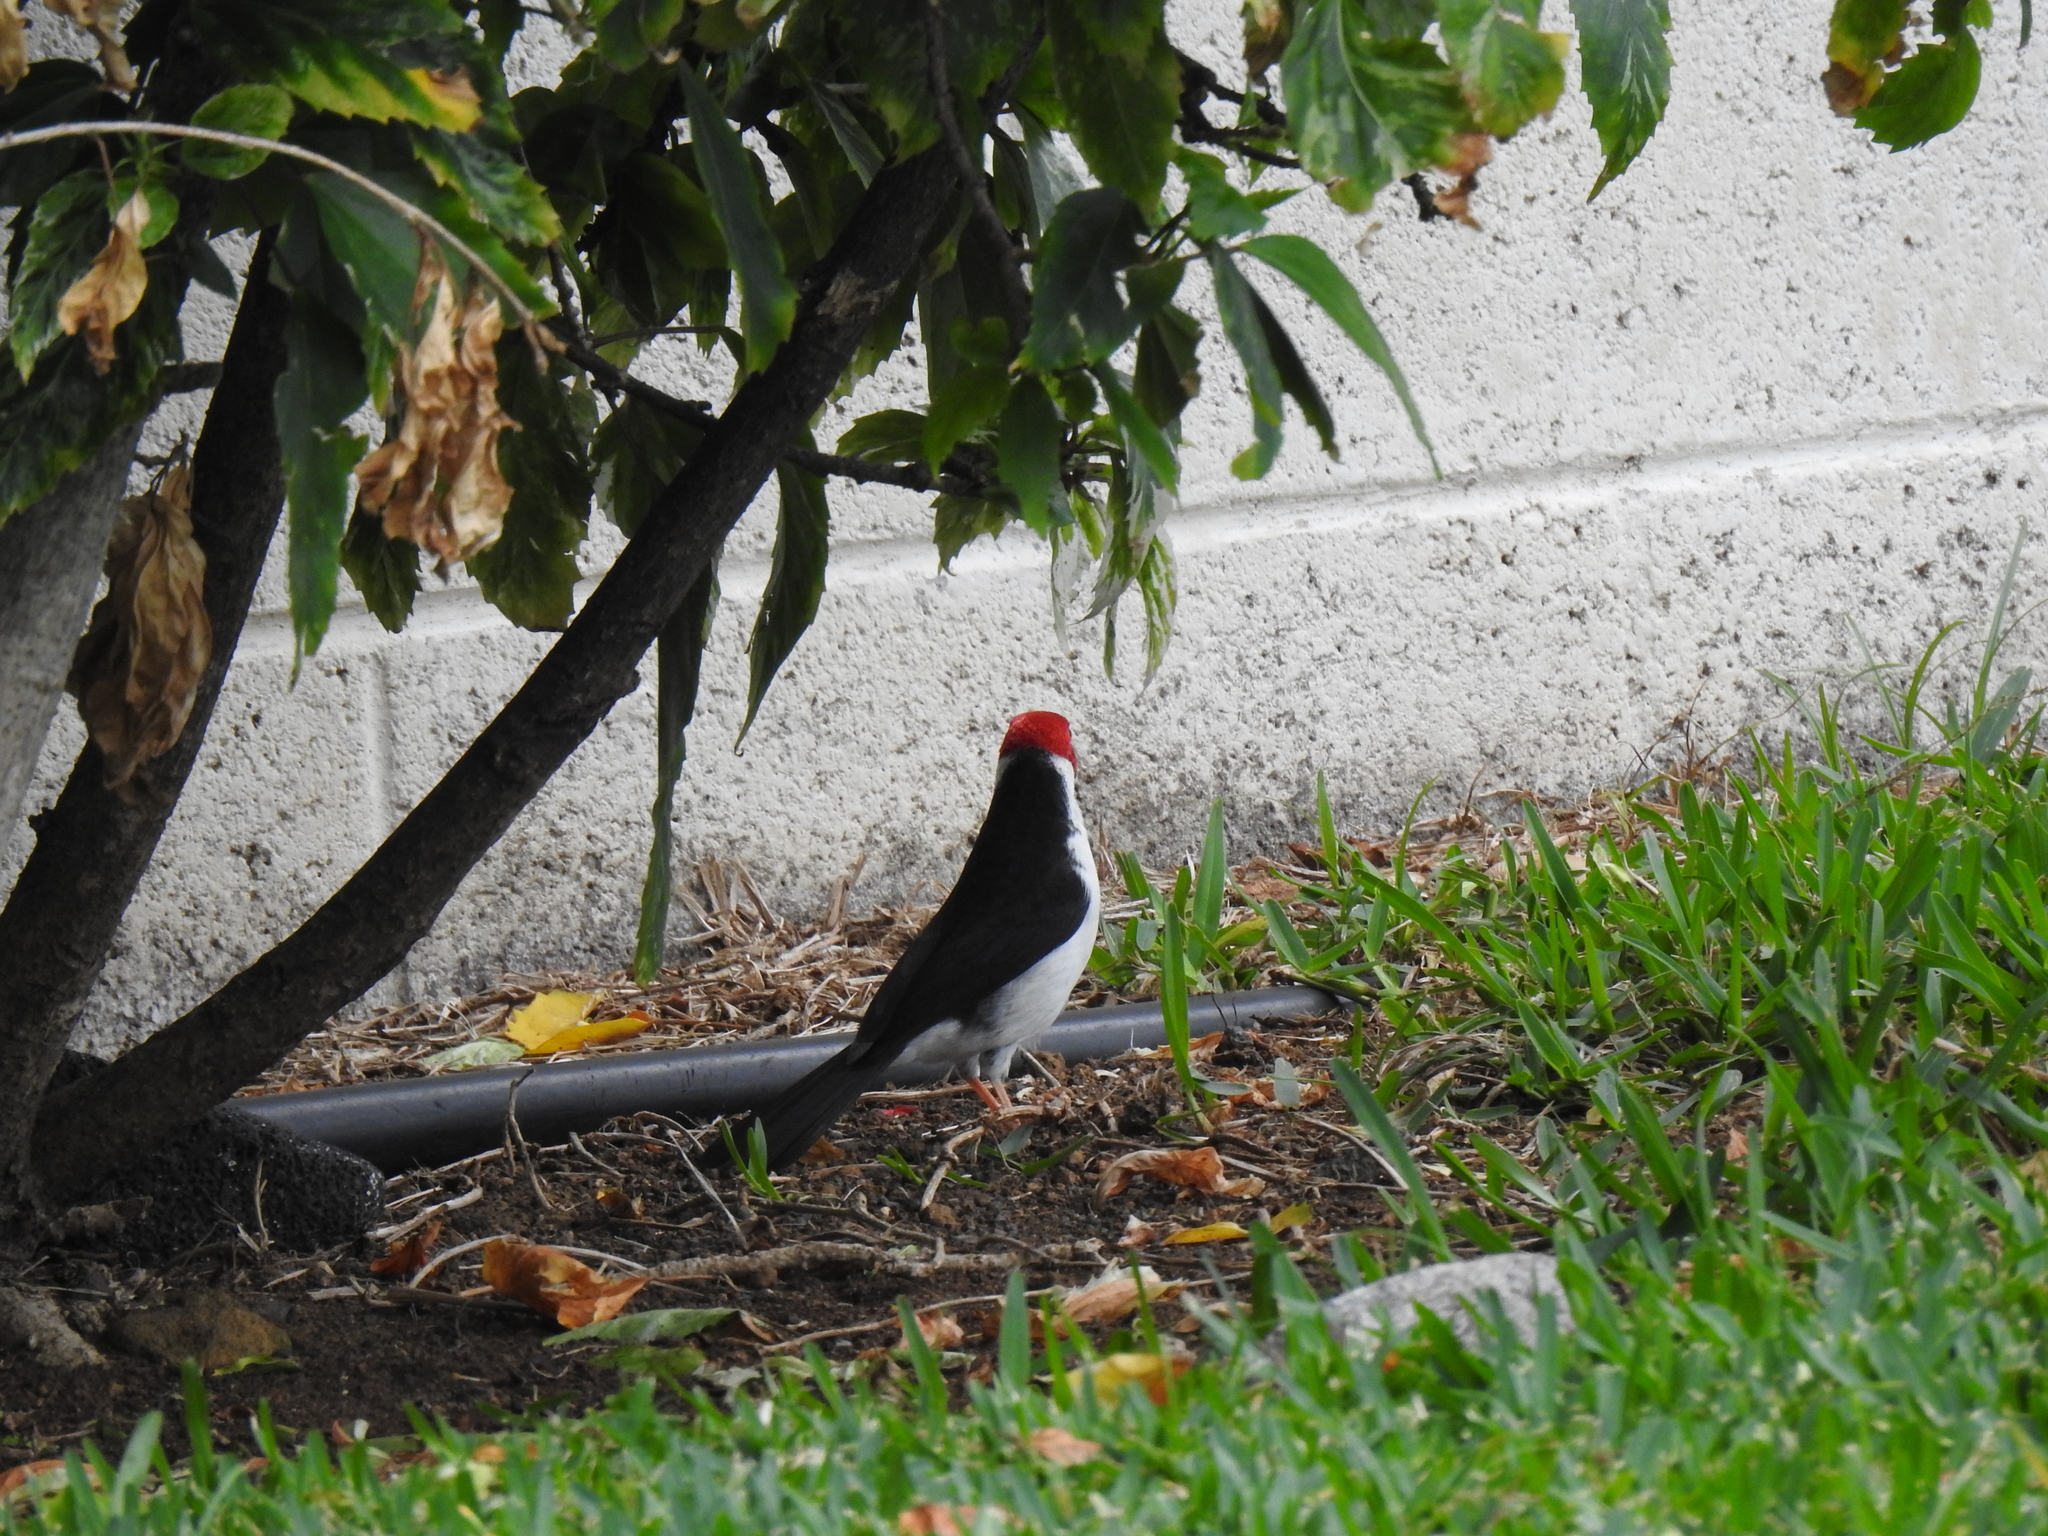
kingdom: Animalia
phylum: Chordata
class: Aves
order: Passeriformes
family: Thraupidae
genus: Paroaria
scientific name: Paroaria capitata
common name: Yellow-billed cardinal
